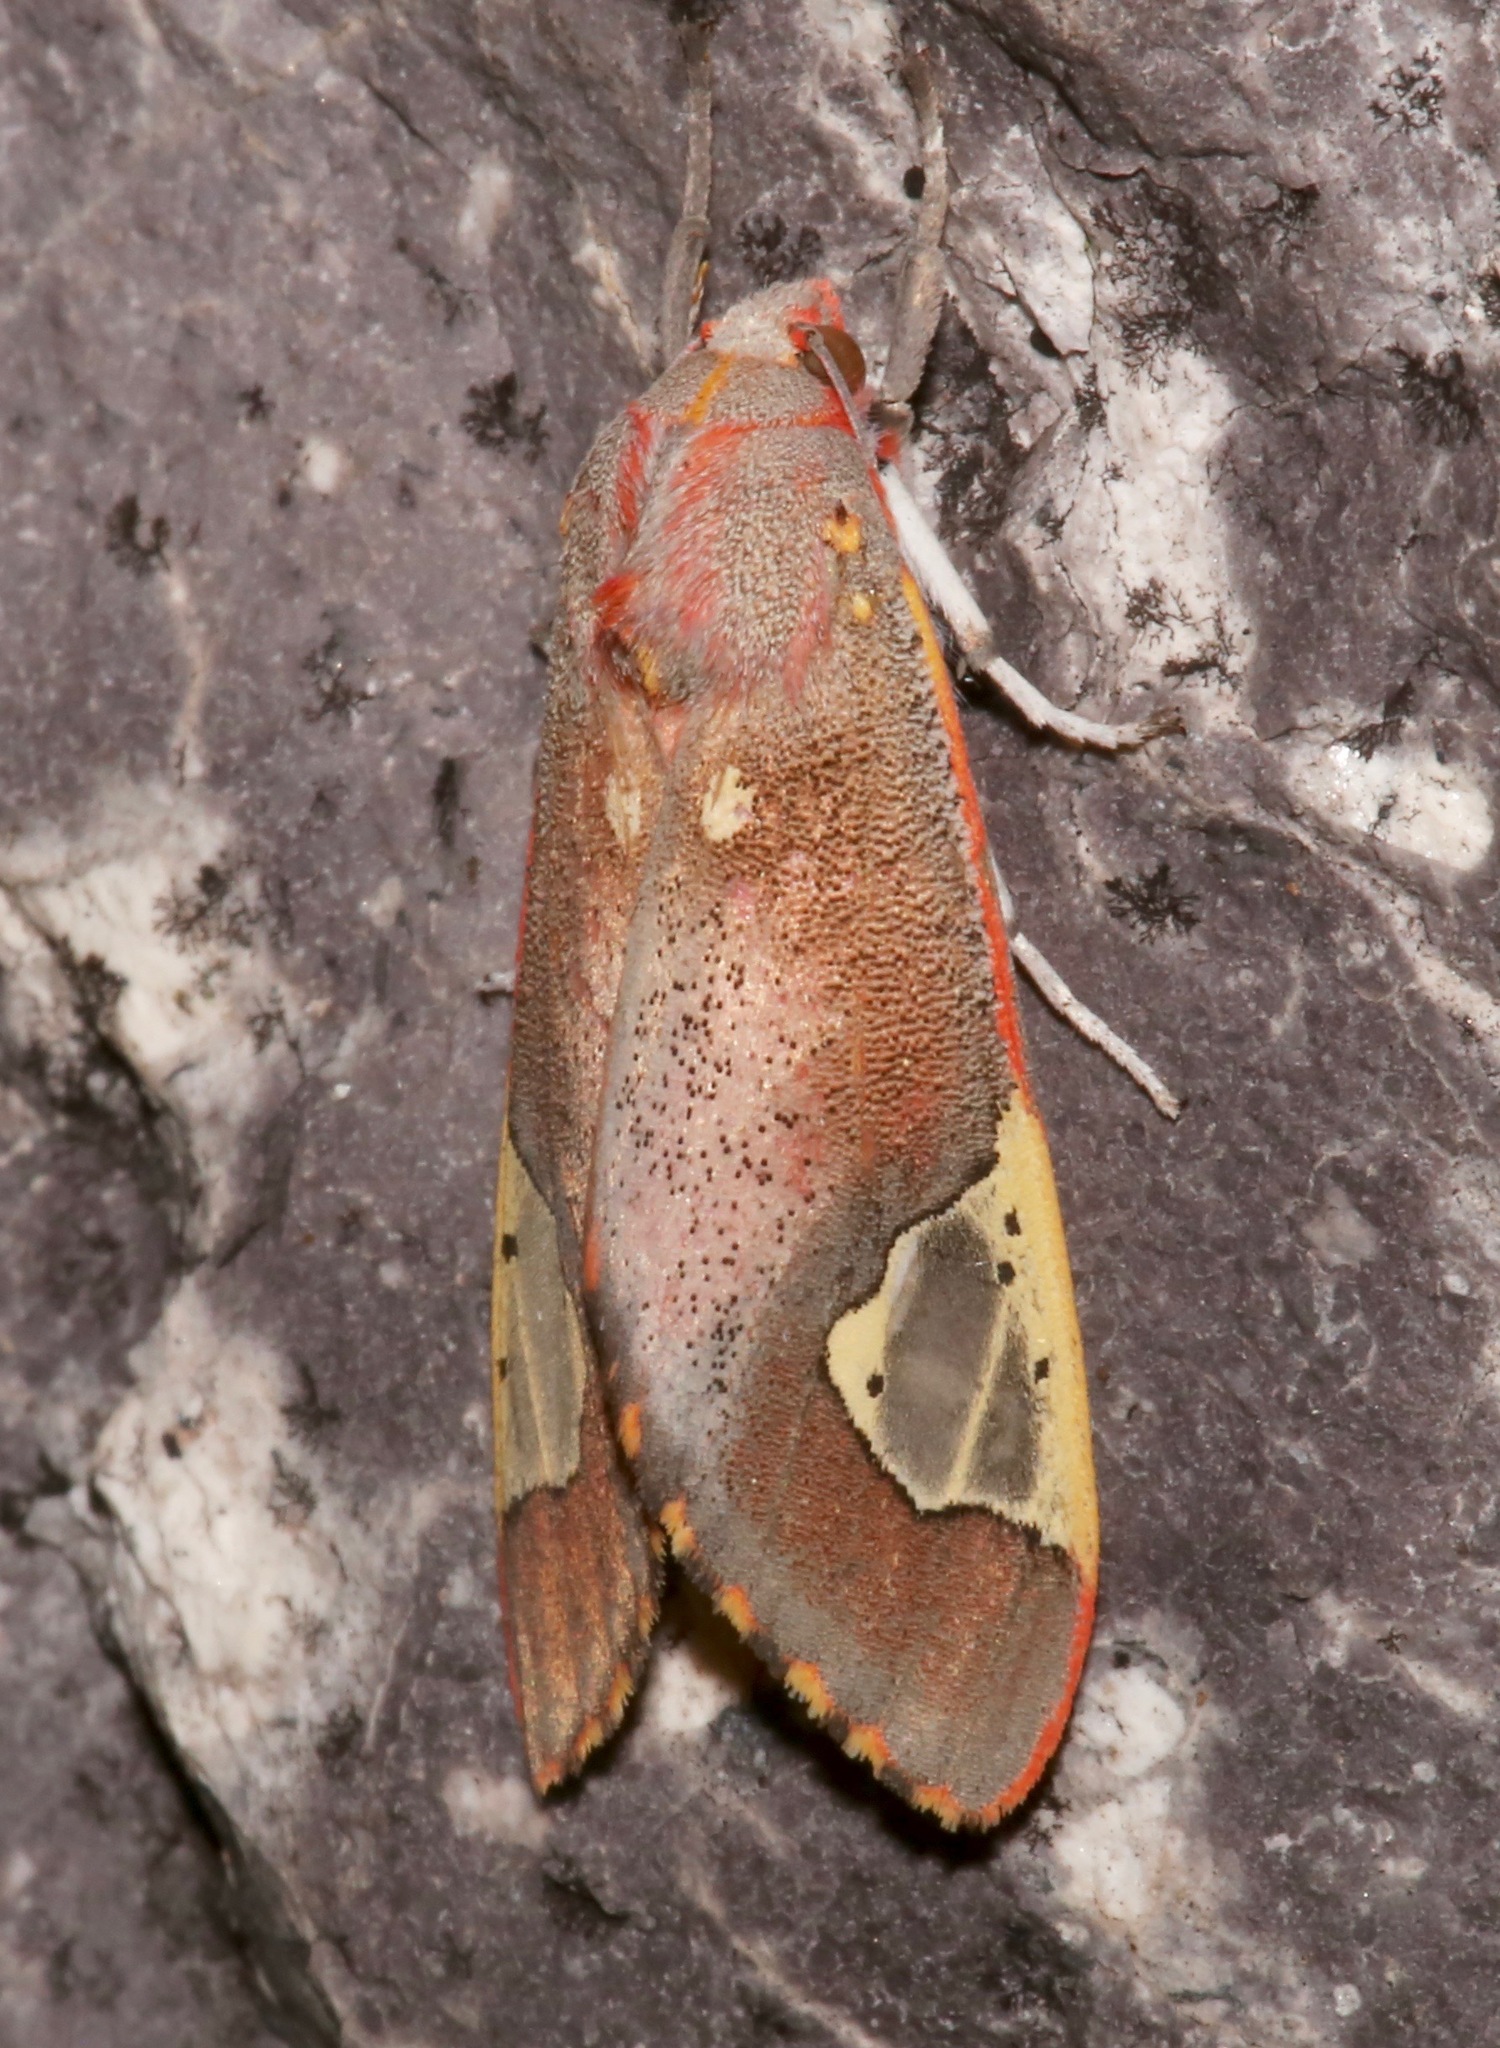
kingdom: Animalia
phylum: Arthropoda
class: Insecta
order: Lepidoptera
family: Erebidae
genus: Bertholdia
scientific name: Bertholdia trigona
